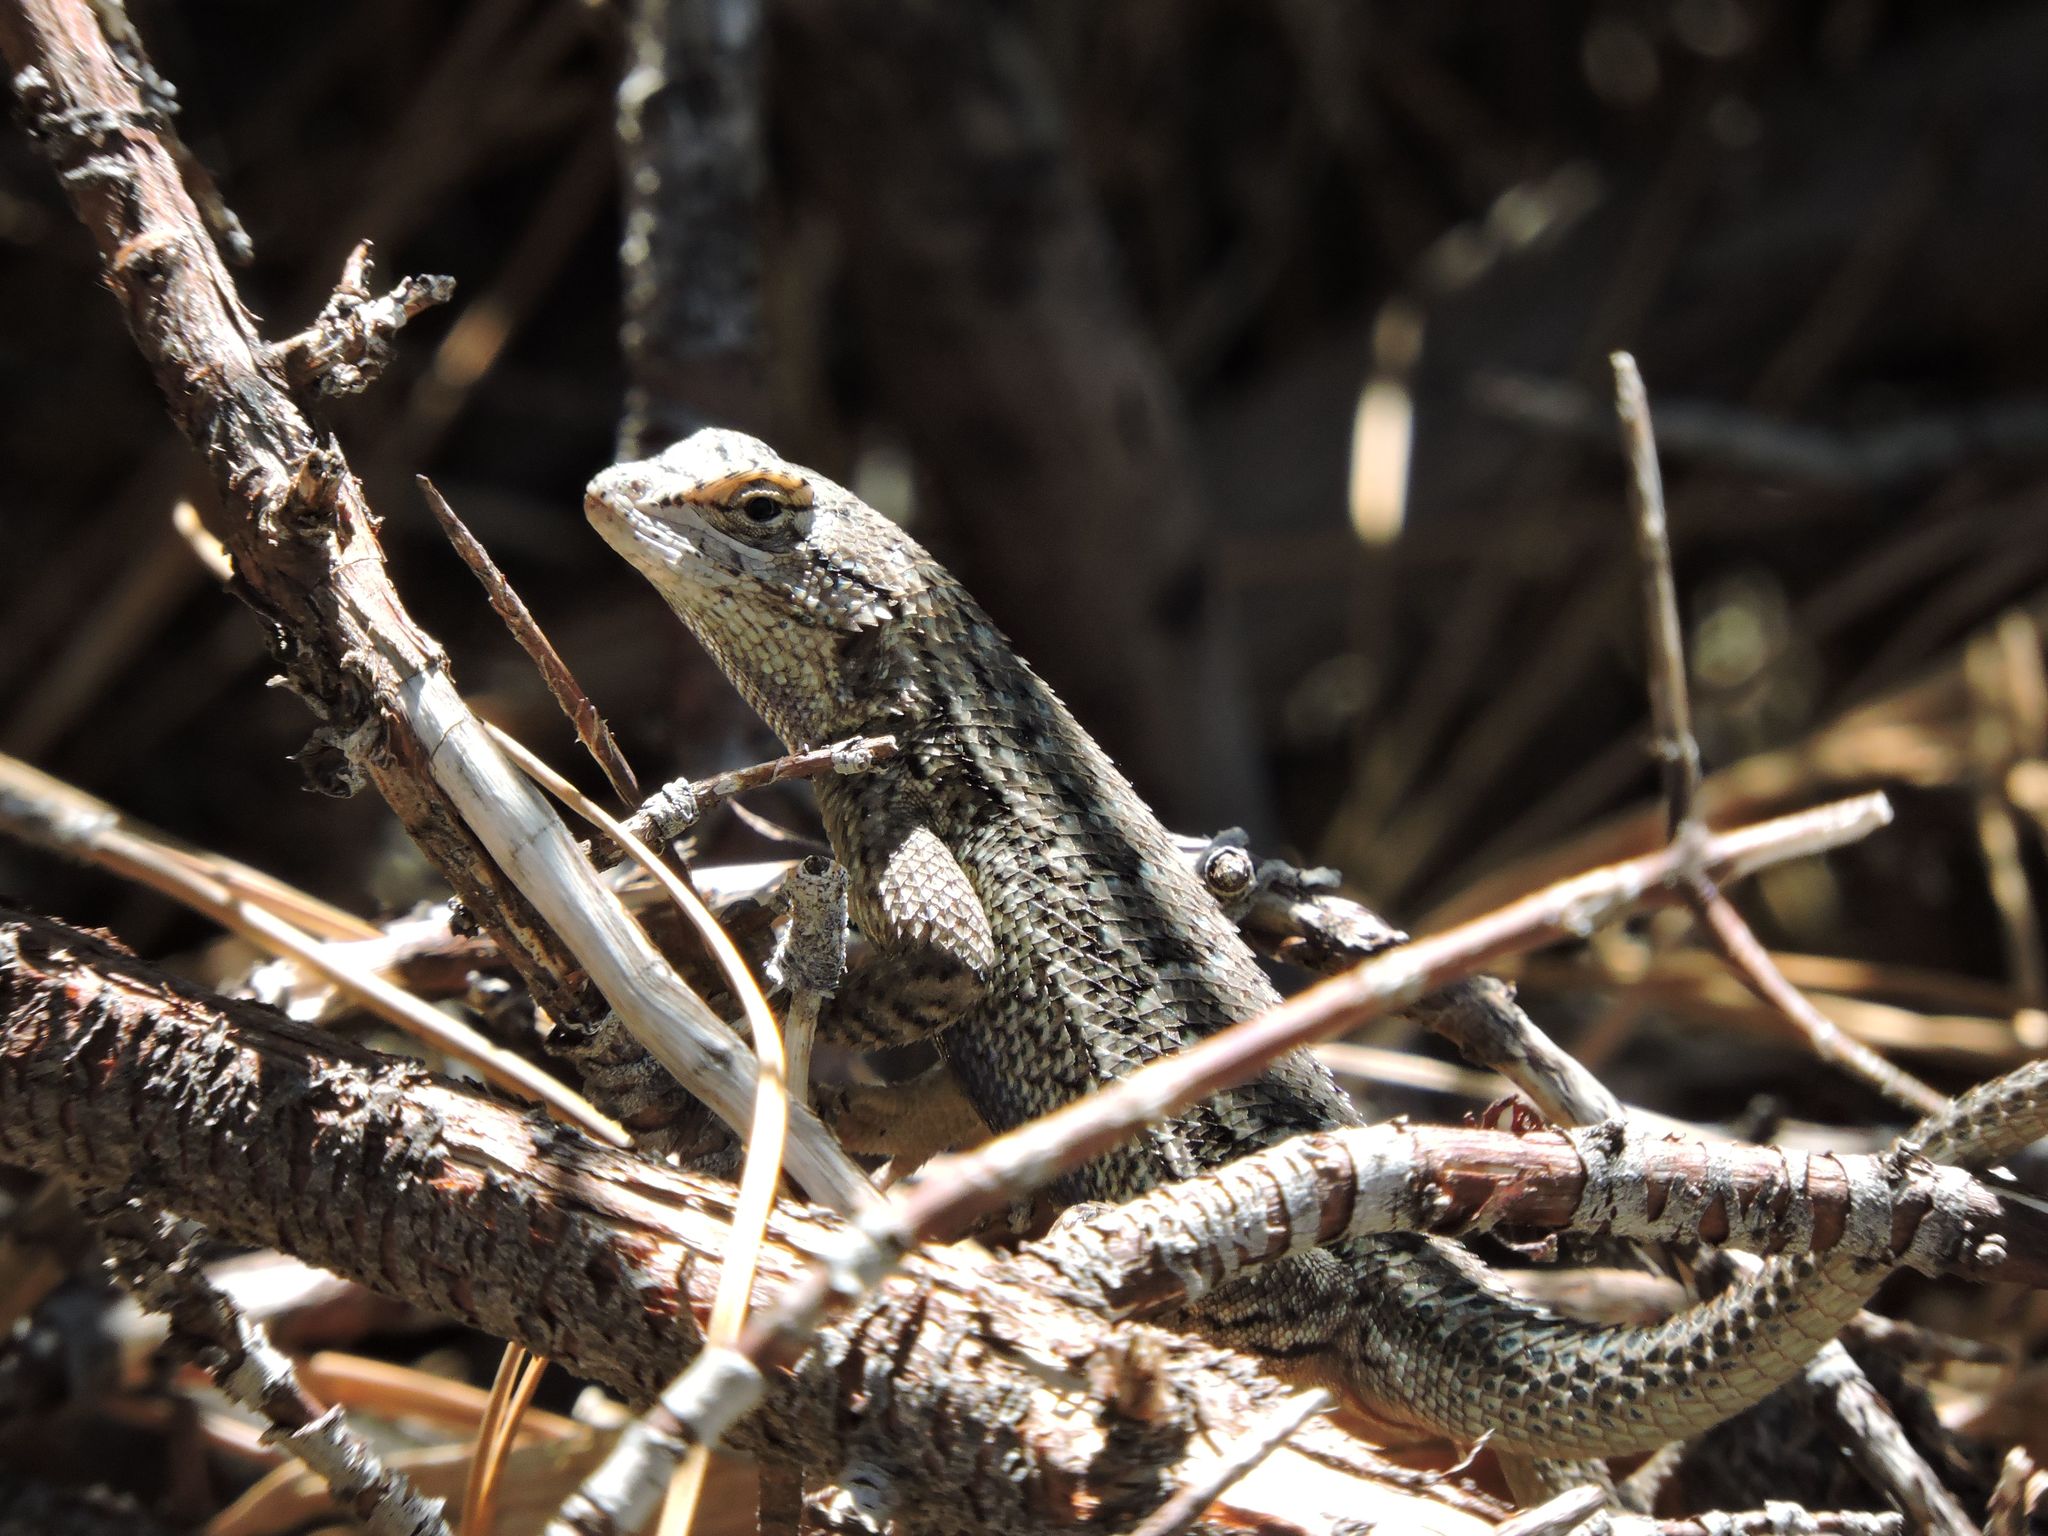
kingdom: Animalia
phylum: Chordata
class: Squamata
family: Phrynosomatidae
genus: Sceloporus
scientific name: Sceloporus occidentalis
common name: Western fence lizard
